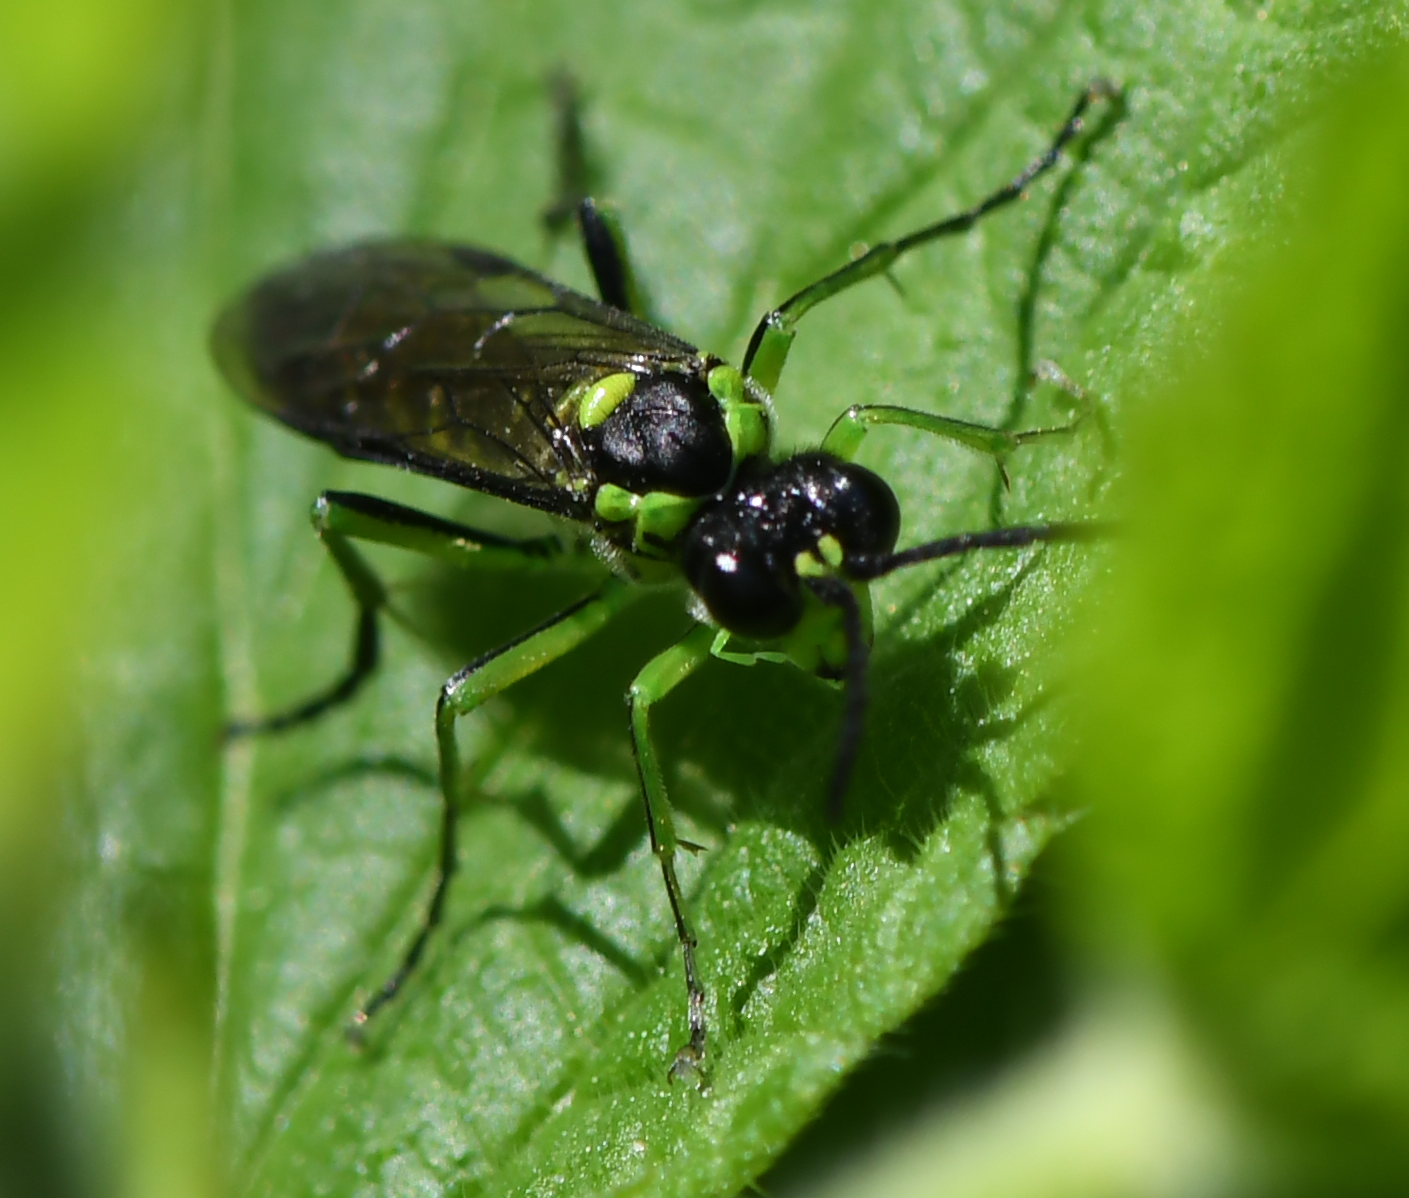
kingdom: Animalia
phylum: Arthropoda
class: Insecta
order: Hymenoptera
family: Tenthredinidae
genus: Tenthredo
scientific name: Tenthredo mesomela
